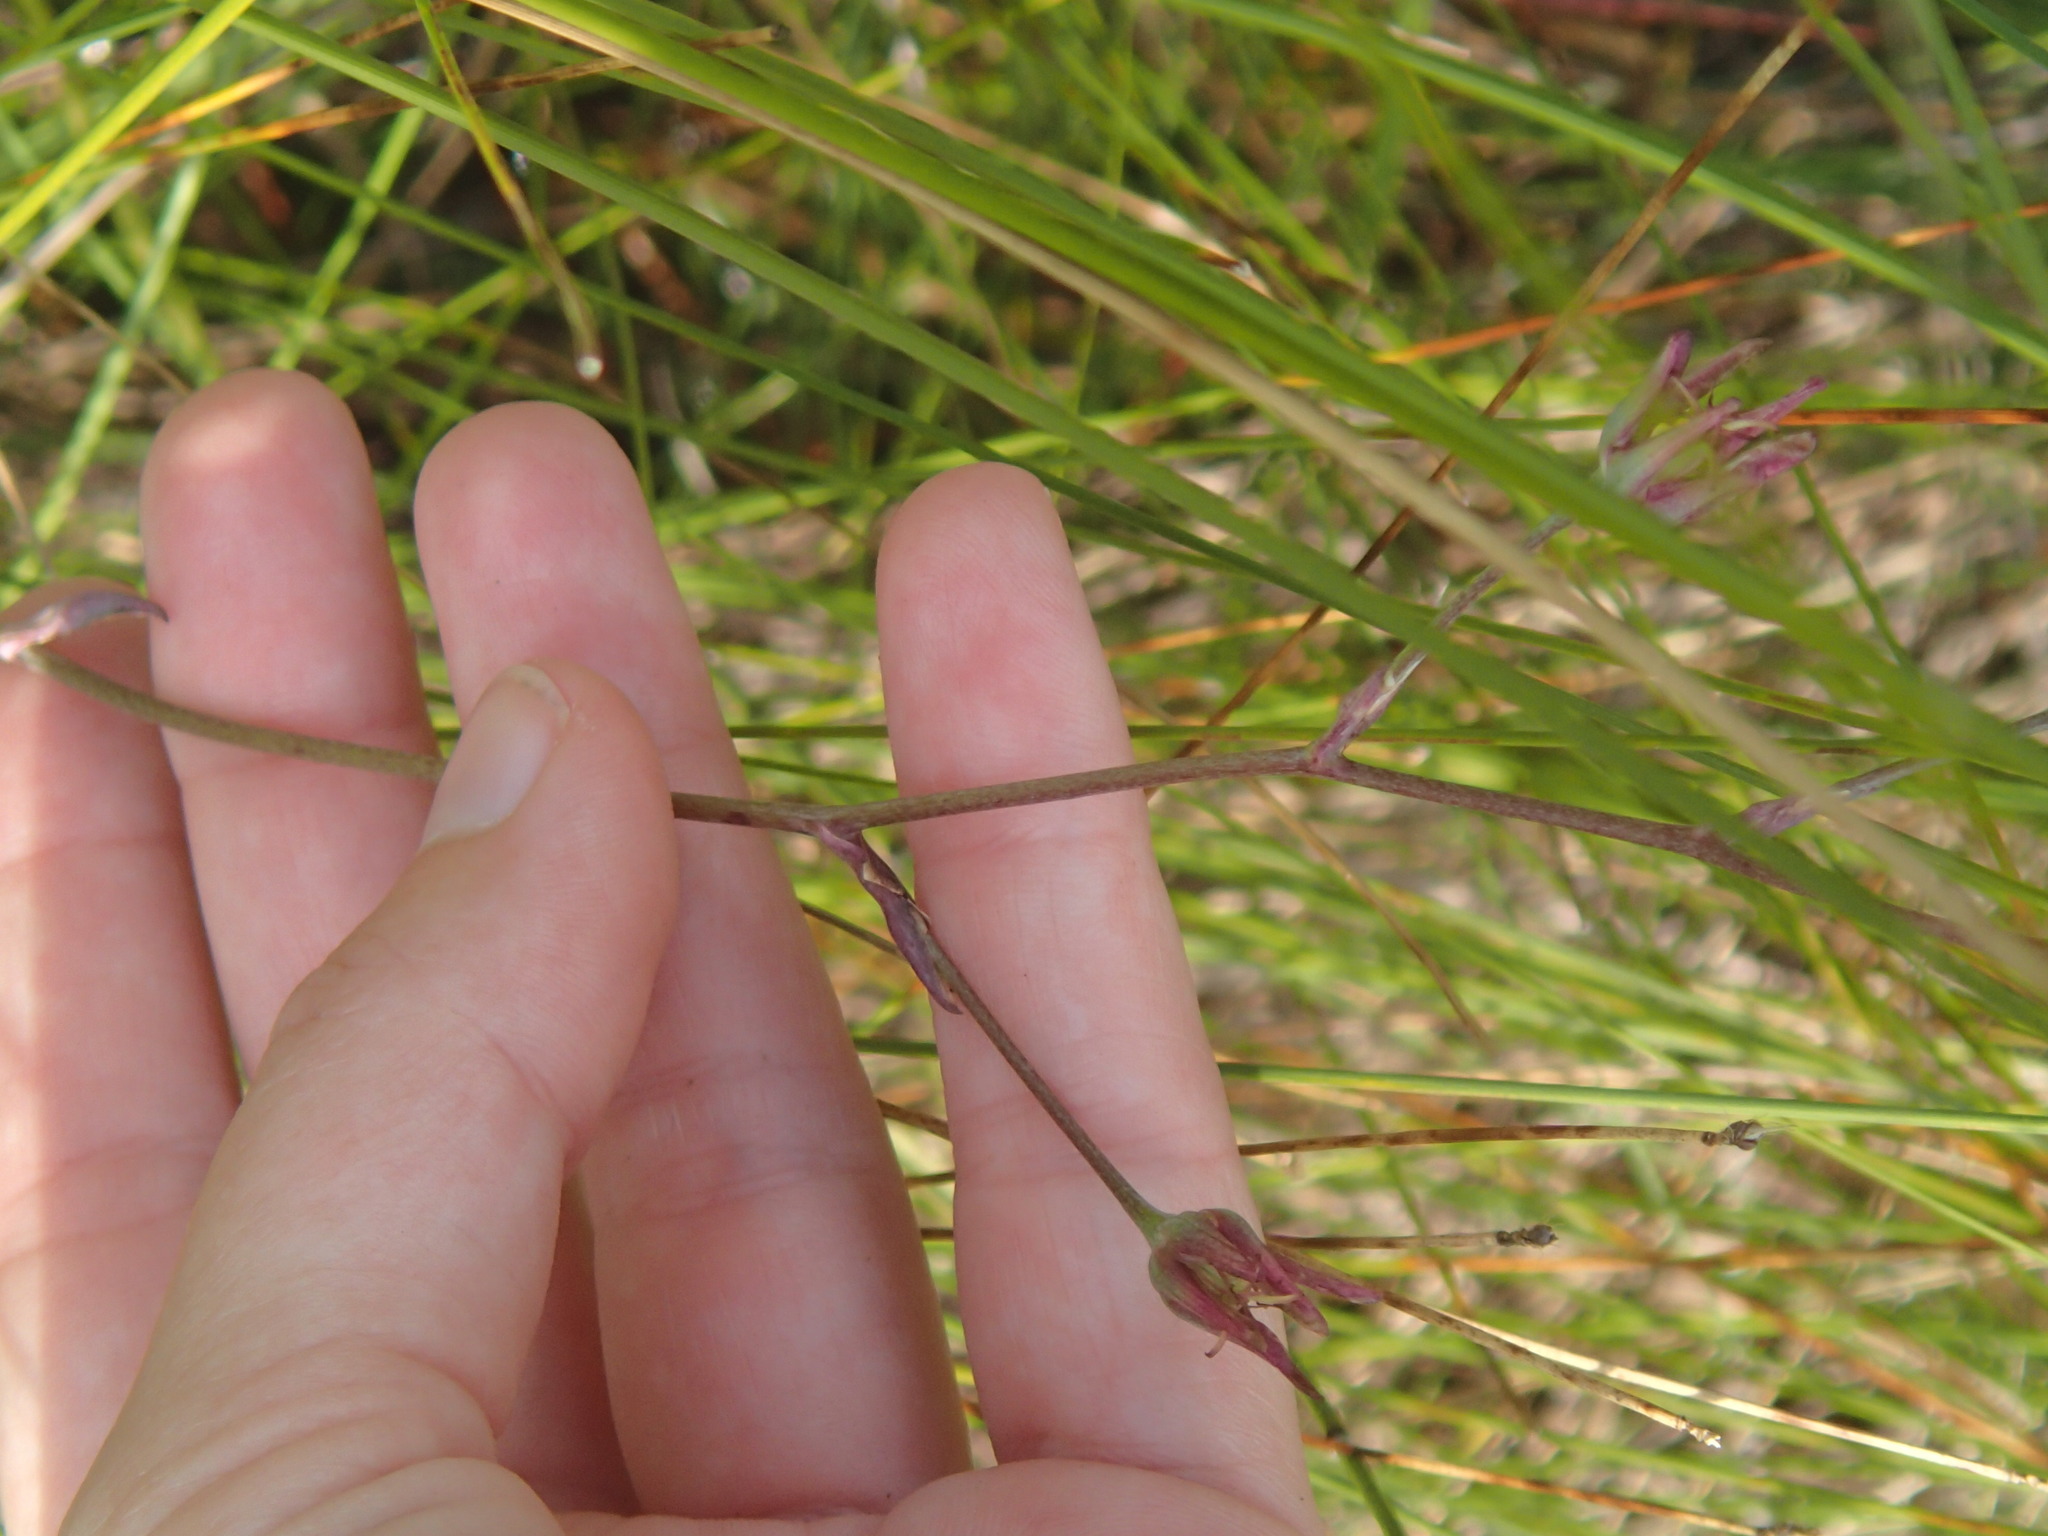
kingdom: Plantae
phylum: Tracheophyta
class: Liliopsida
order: Liliales
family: Melanthiaceae
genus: Anticlea
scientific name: Anticlea elegans
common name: Mountain death camas
